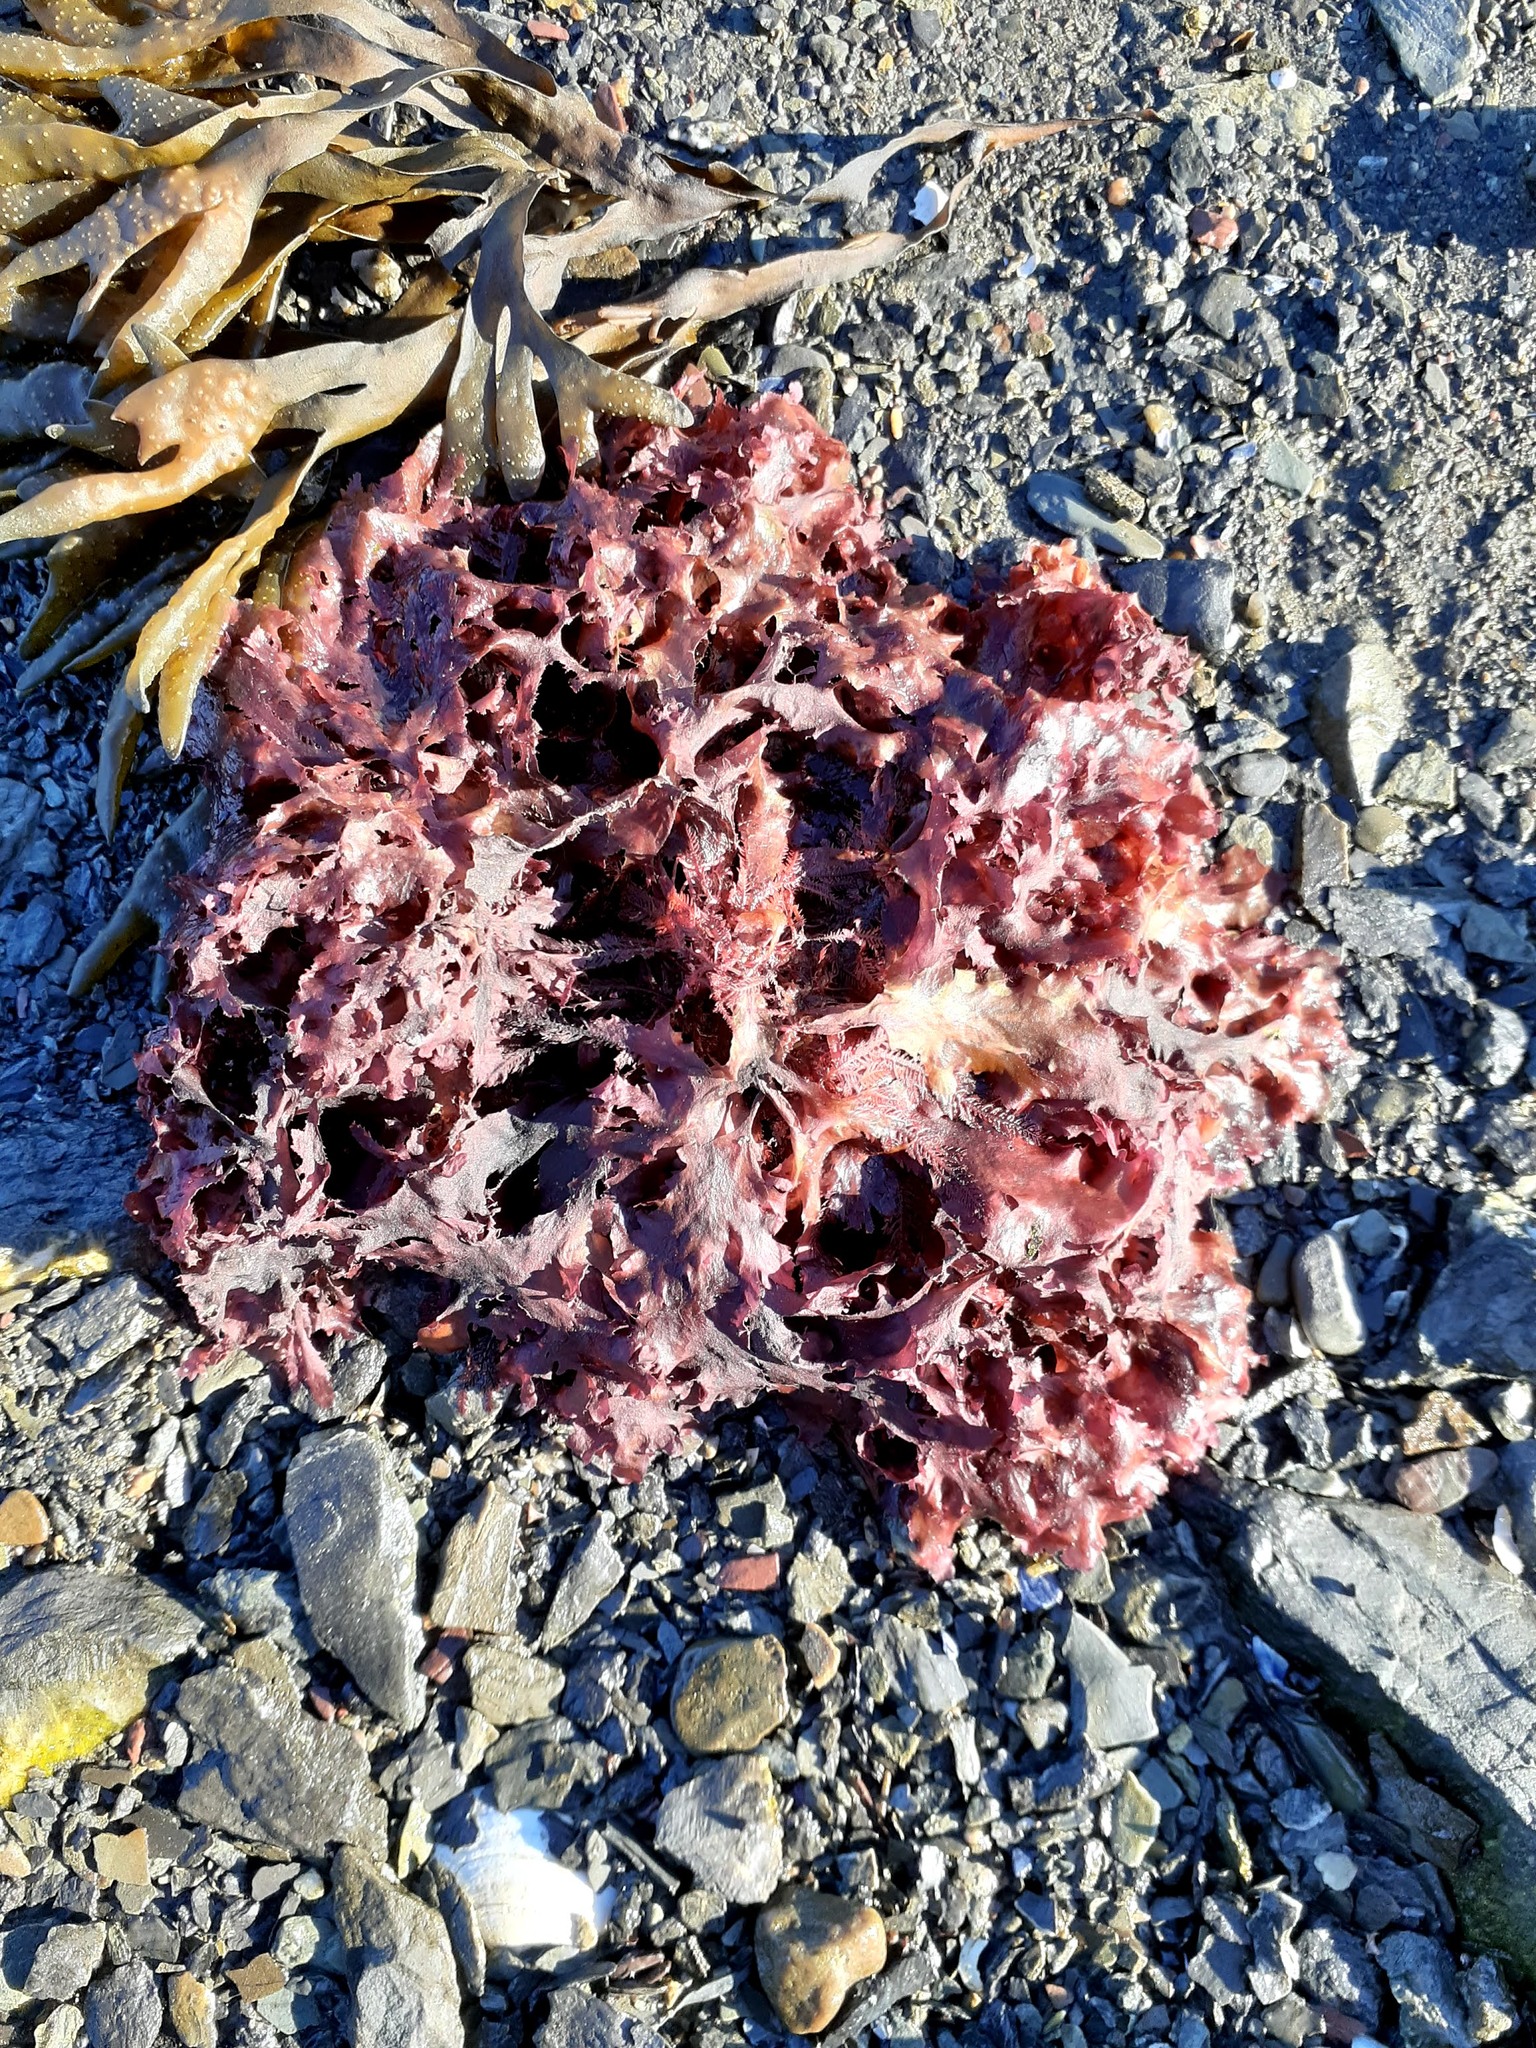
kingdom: Plantae
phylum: Rhodophyta
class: Florideophyceae
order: Ceramiales
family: Delesseriaceae
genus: Phycodrys
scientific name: Phycodrys rubens
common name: Sea oak
